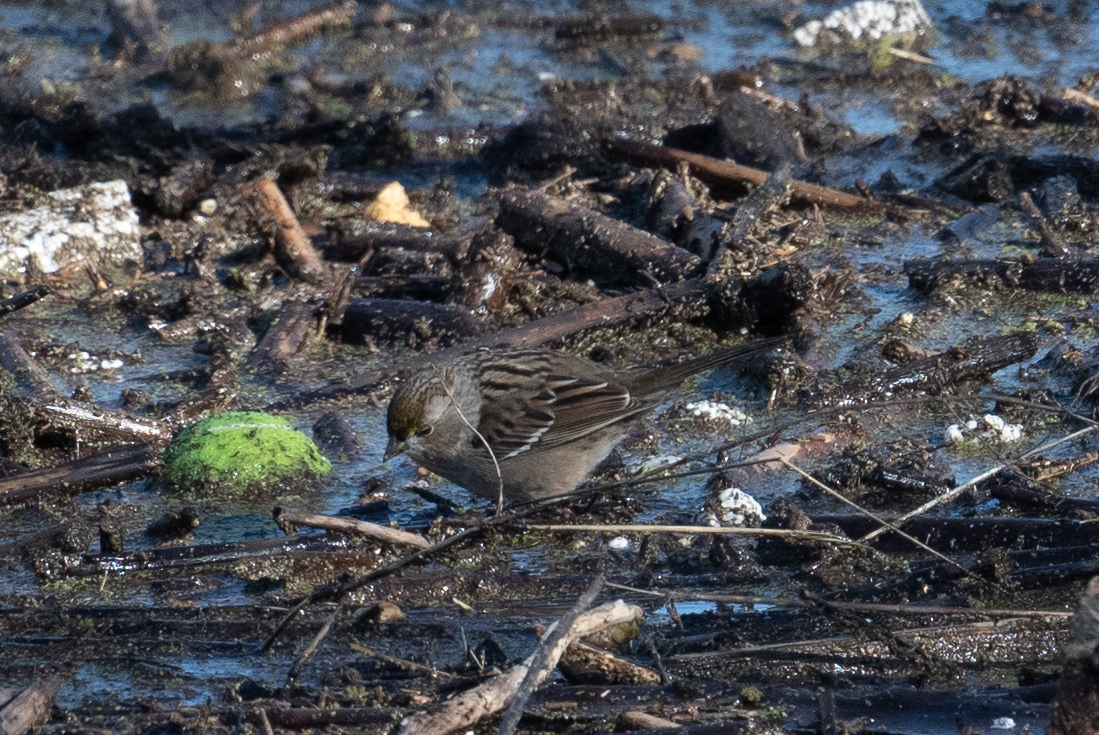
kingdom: Animalia
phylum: Chordata
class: Aves
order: Passeriformes
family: Passerellidae
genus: Zonotrichia
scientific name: Zonotrichia atricapilla
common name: Golden-crowned sparrow
